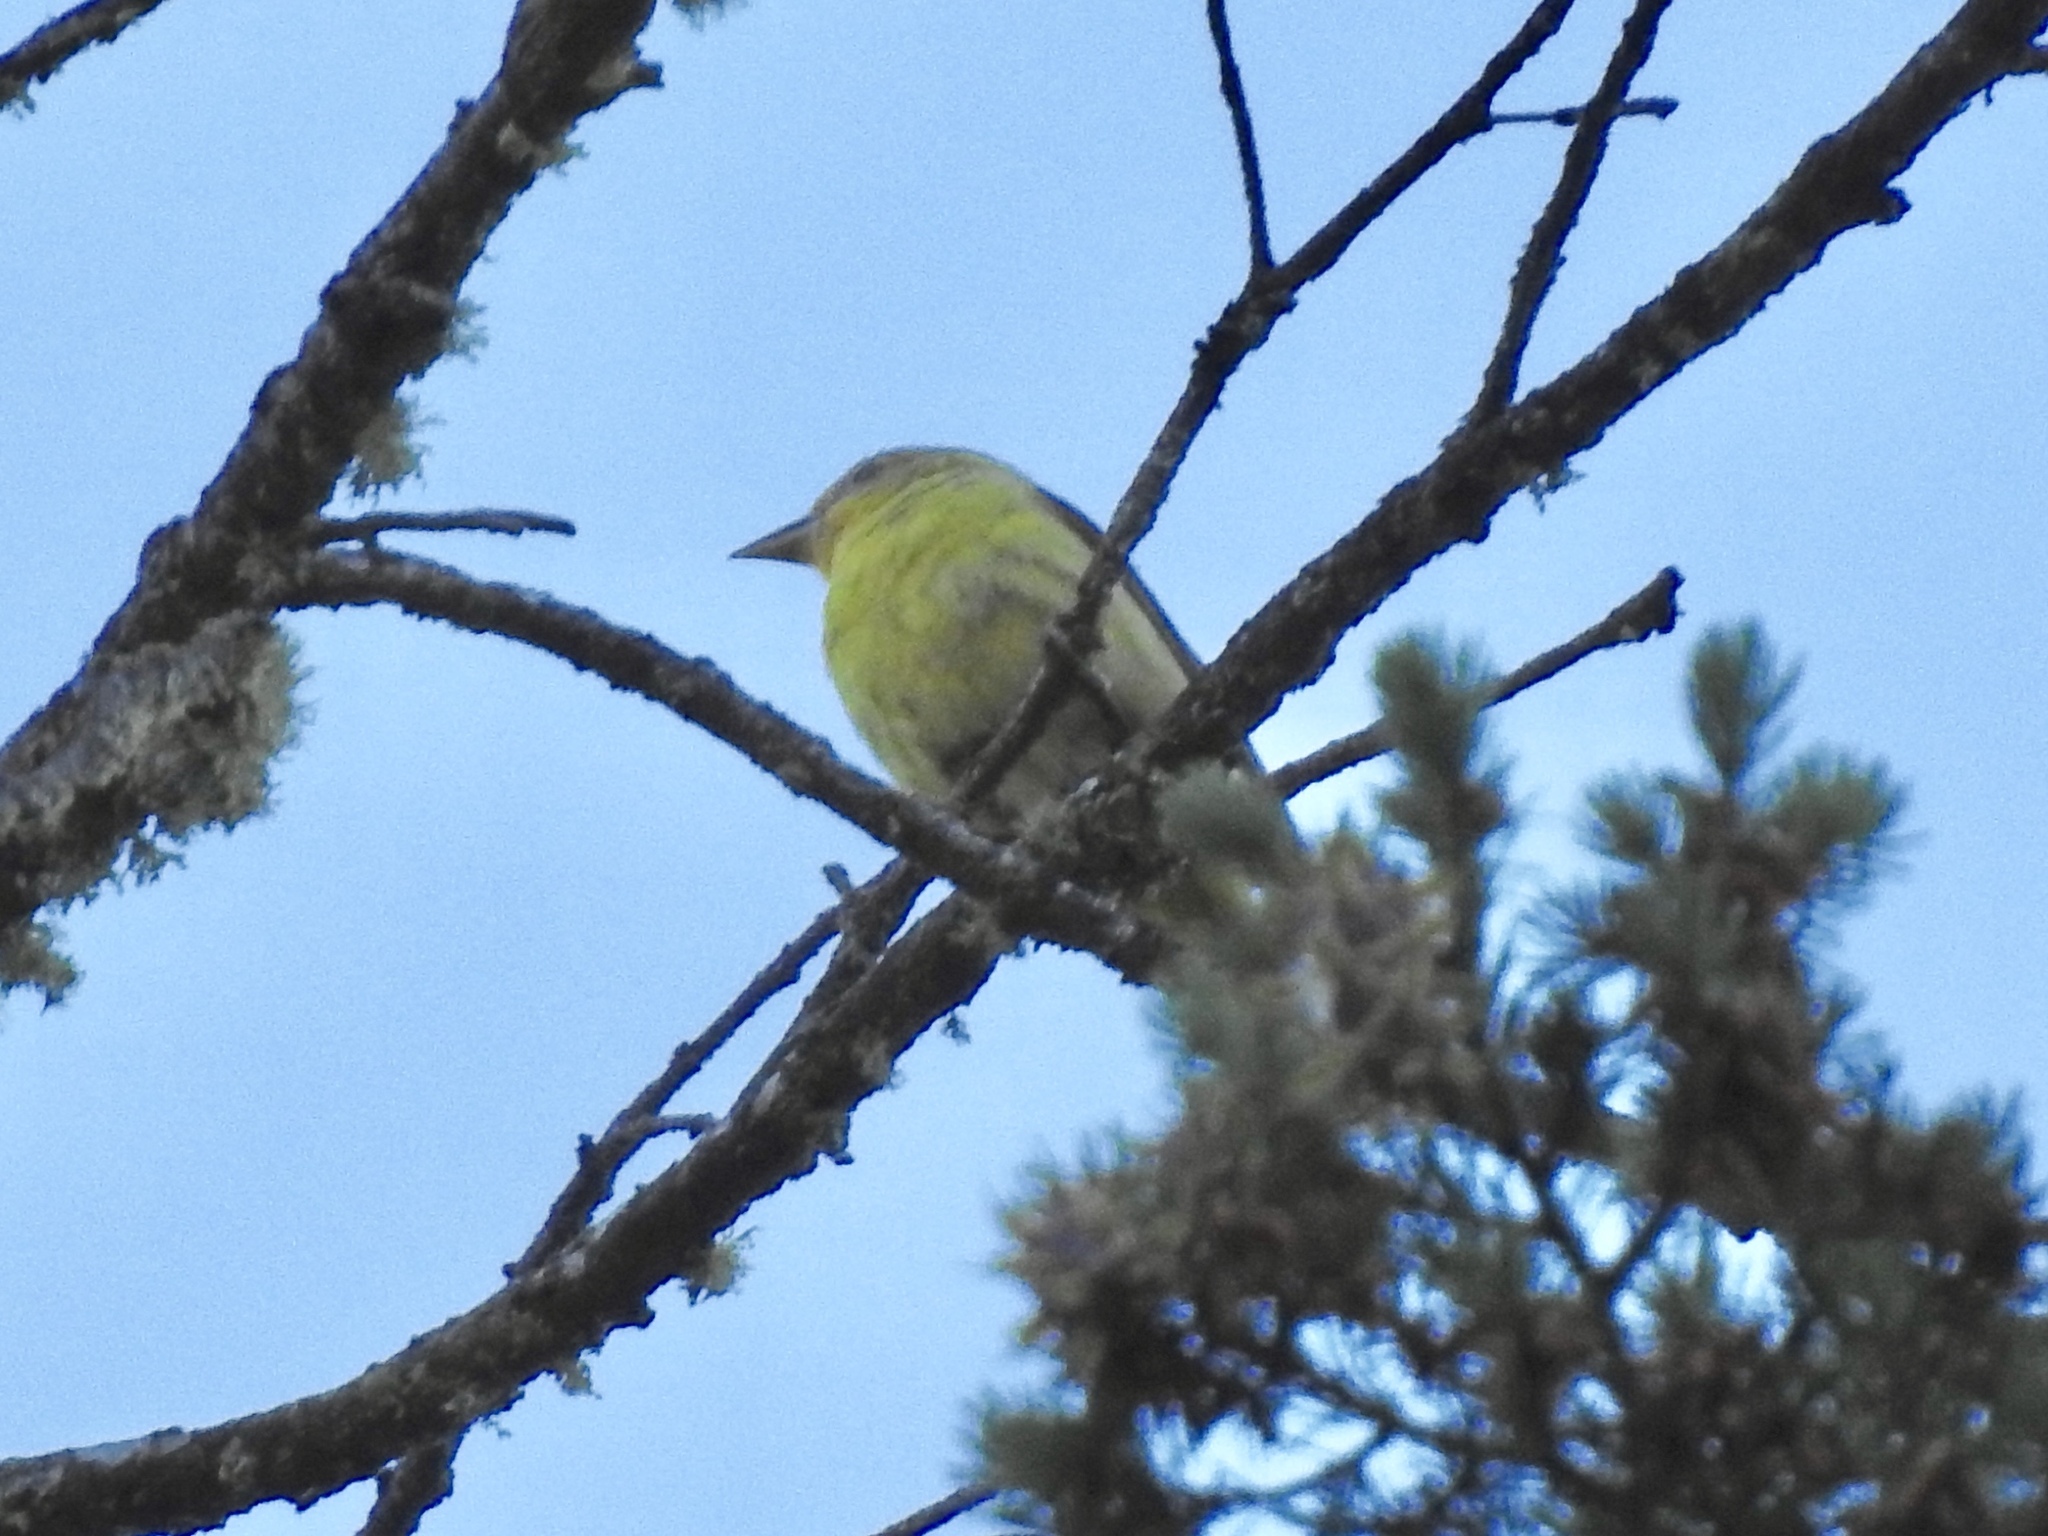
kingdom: Animalia
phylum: Chordata
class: Aves
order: Passeriformes
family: Cardinalidae
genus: Piranga
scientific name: Piranga ludoviciana
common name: Western tanager
